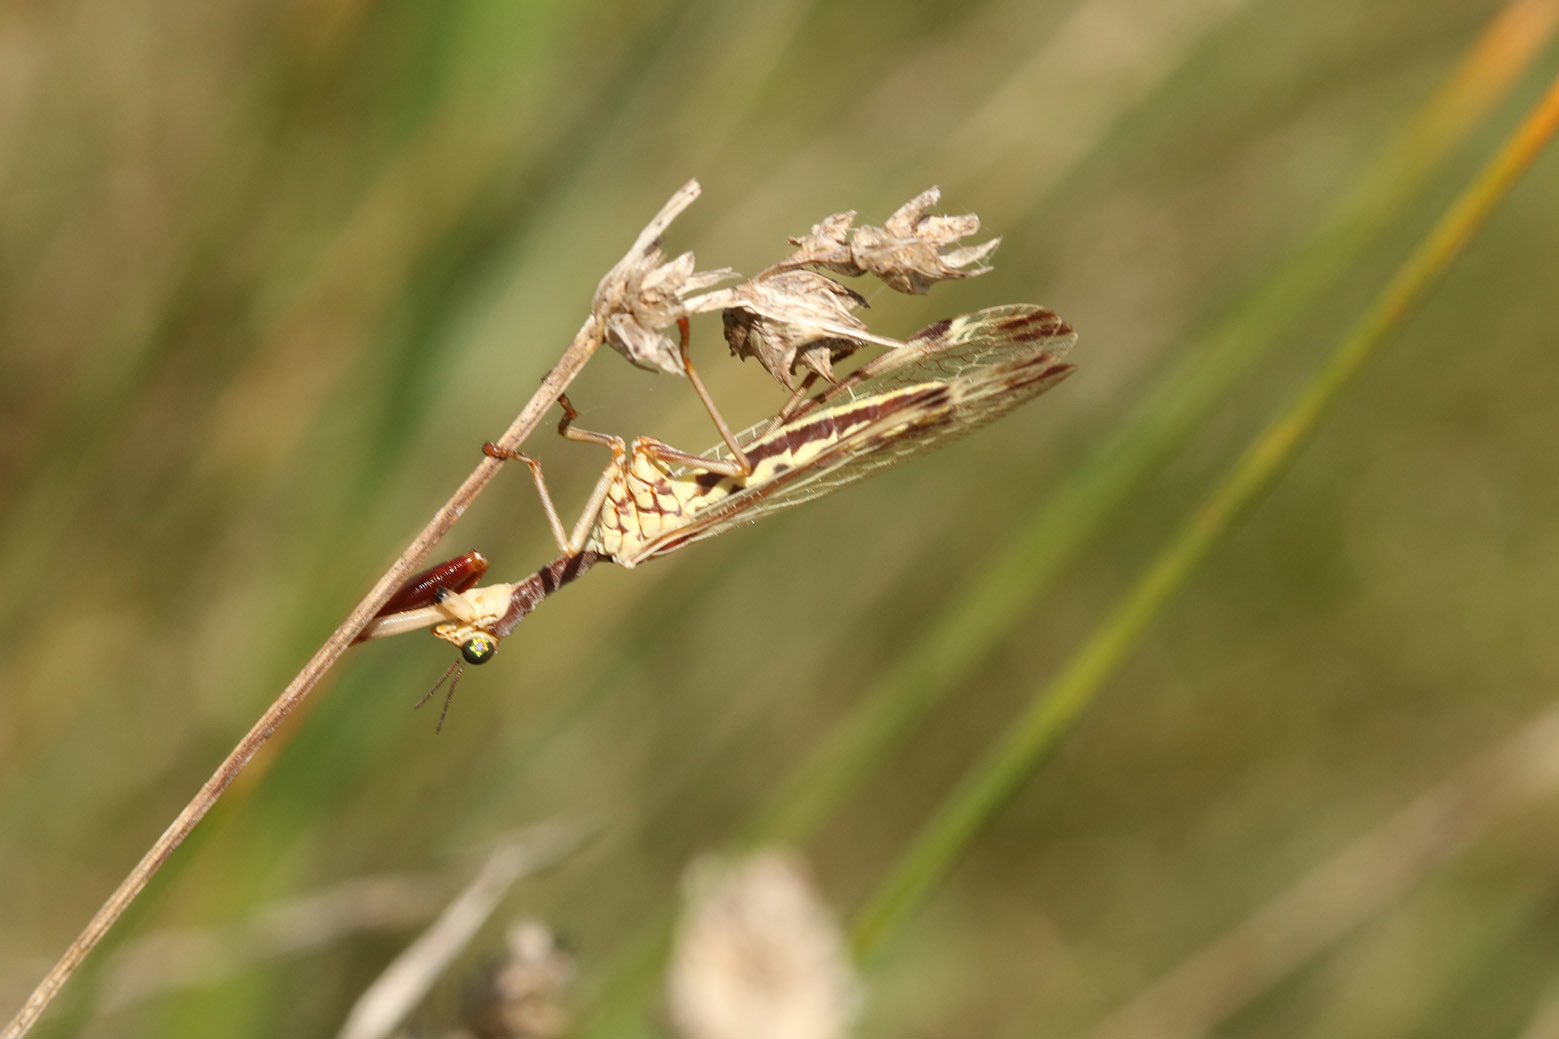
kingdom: Animalia
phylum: Arthropoda
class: Insecta
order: Neuroptera
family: Mantispidae
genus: Paramantispa
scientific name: Paramantispa prolixa
